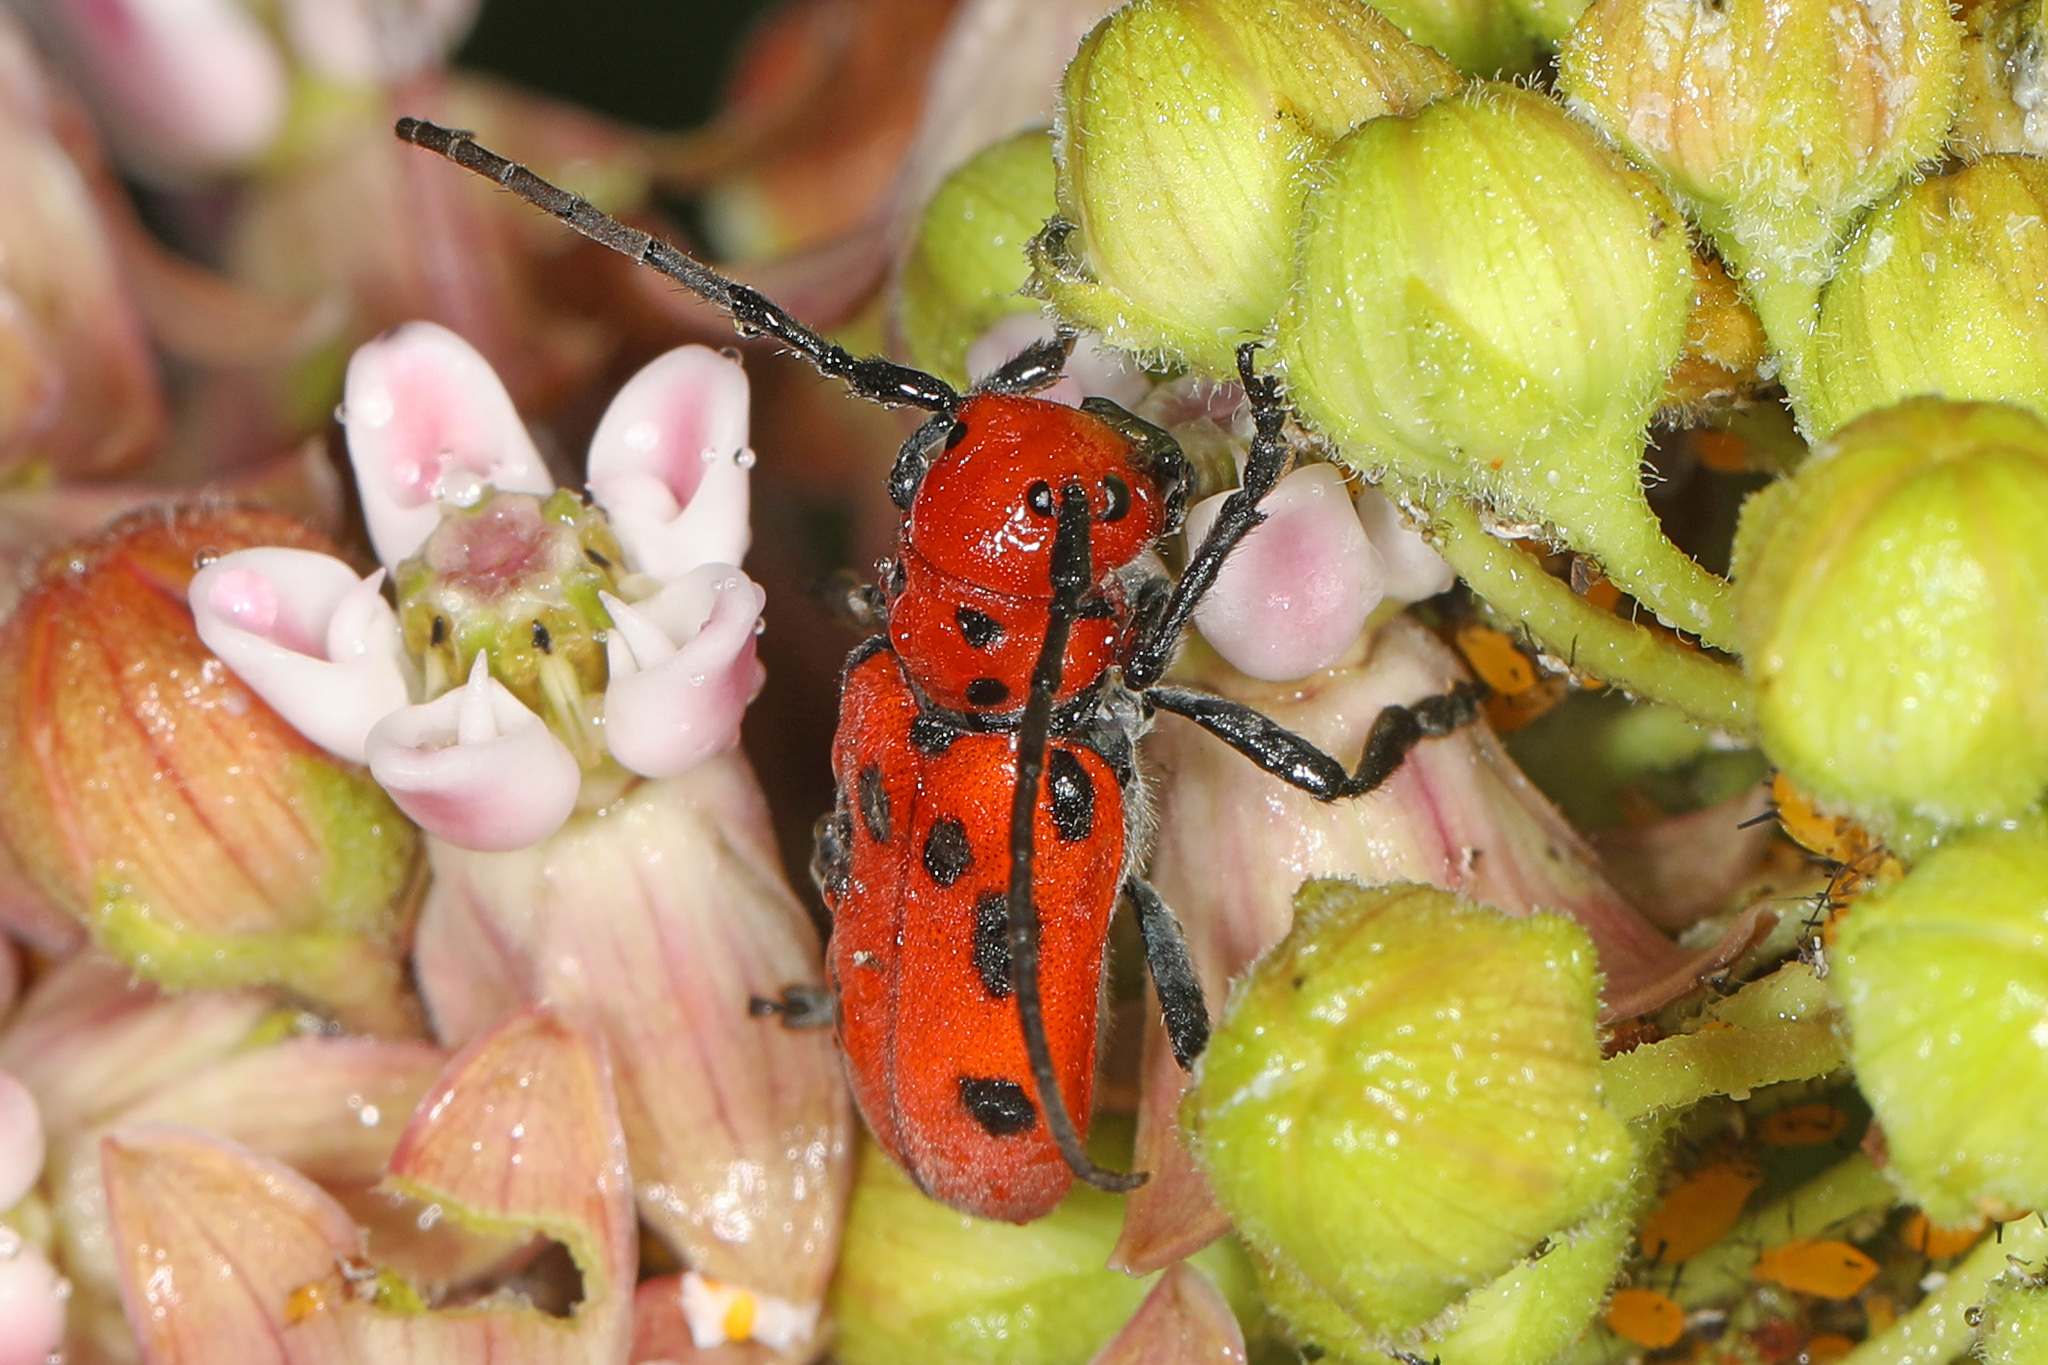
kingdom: Animalia
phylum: Arthropoda
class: Insecta
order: Coleoptera
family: Cerambycidae
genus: Tetraopes
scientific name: Tetraopes tetrophthalmus
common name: Red milkweed beetle
